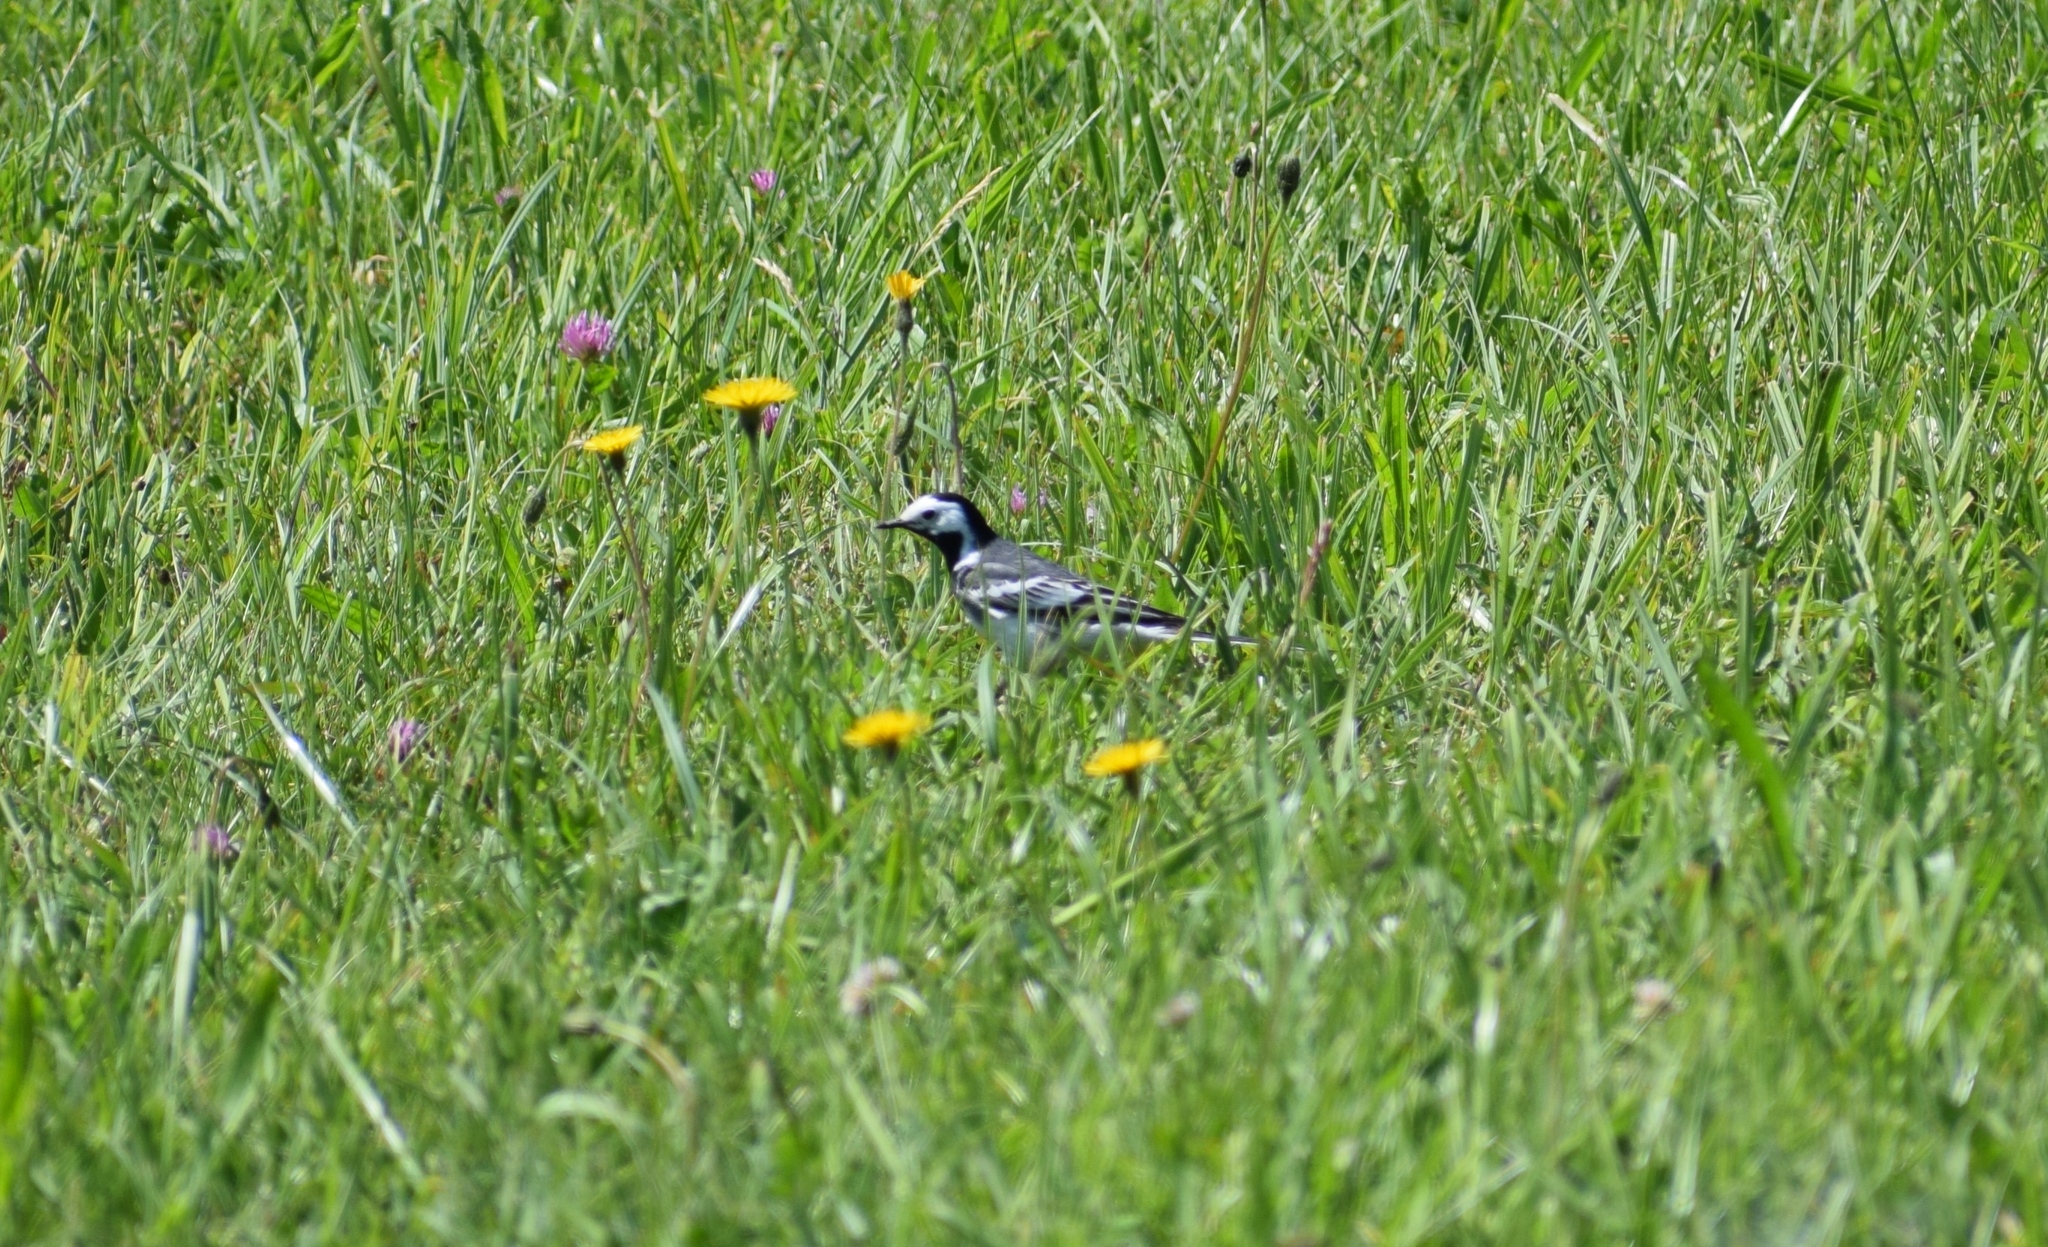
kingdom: Animalia
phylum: Chordata
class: Aves
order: Passeriformes
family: Motacillidae
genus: Motacilla
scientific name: Motacilla alba
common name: White wagtail
